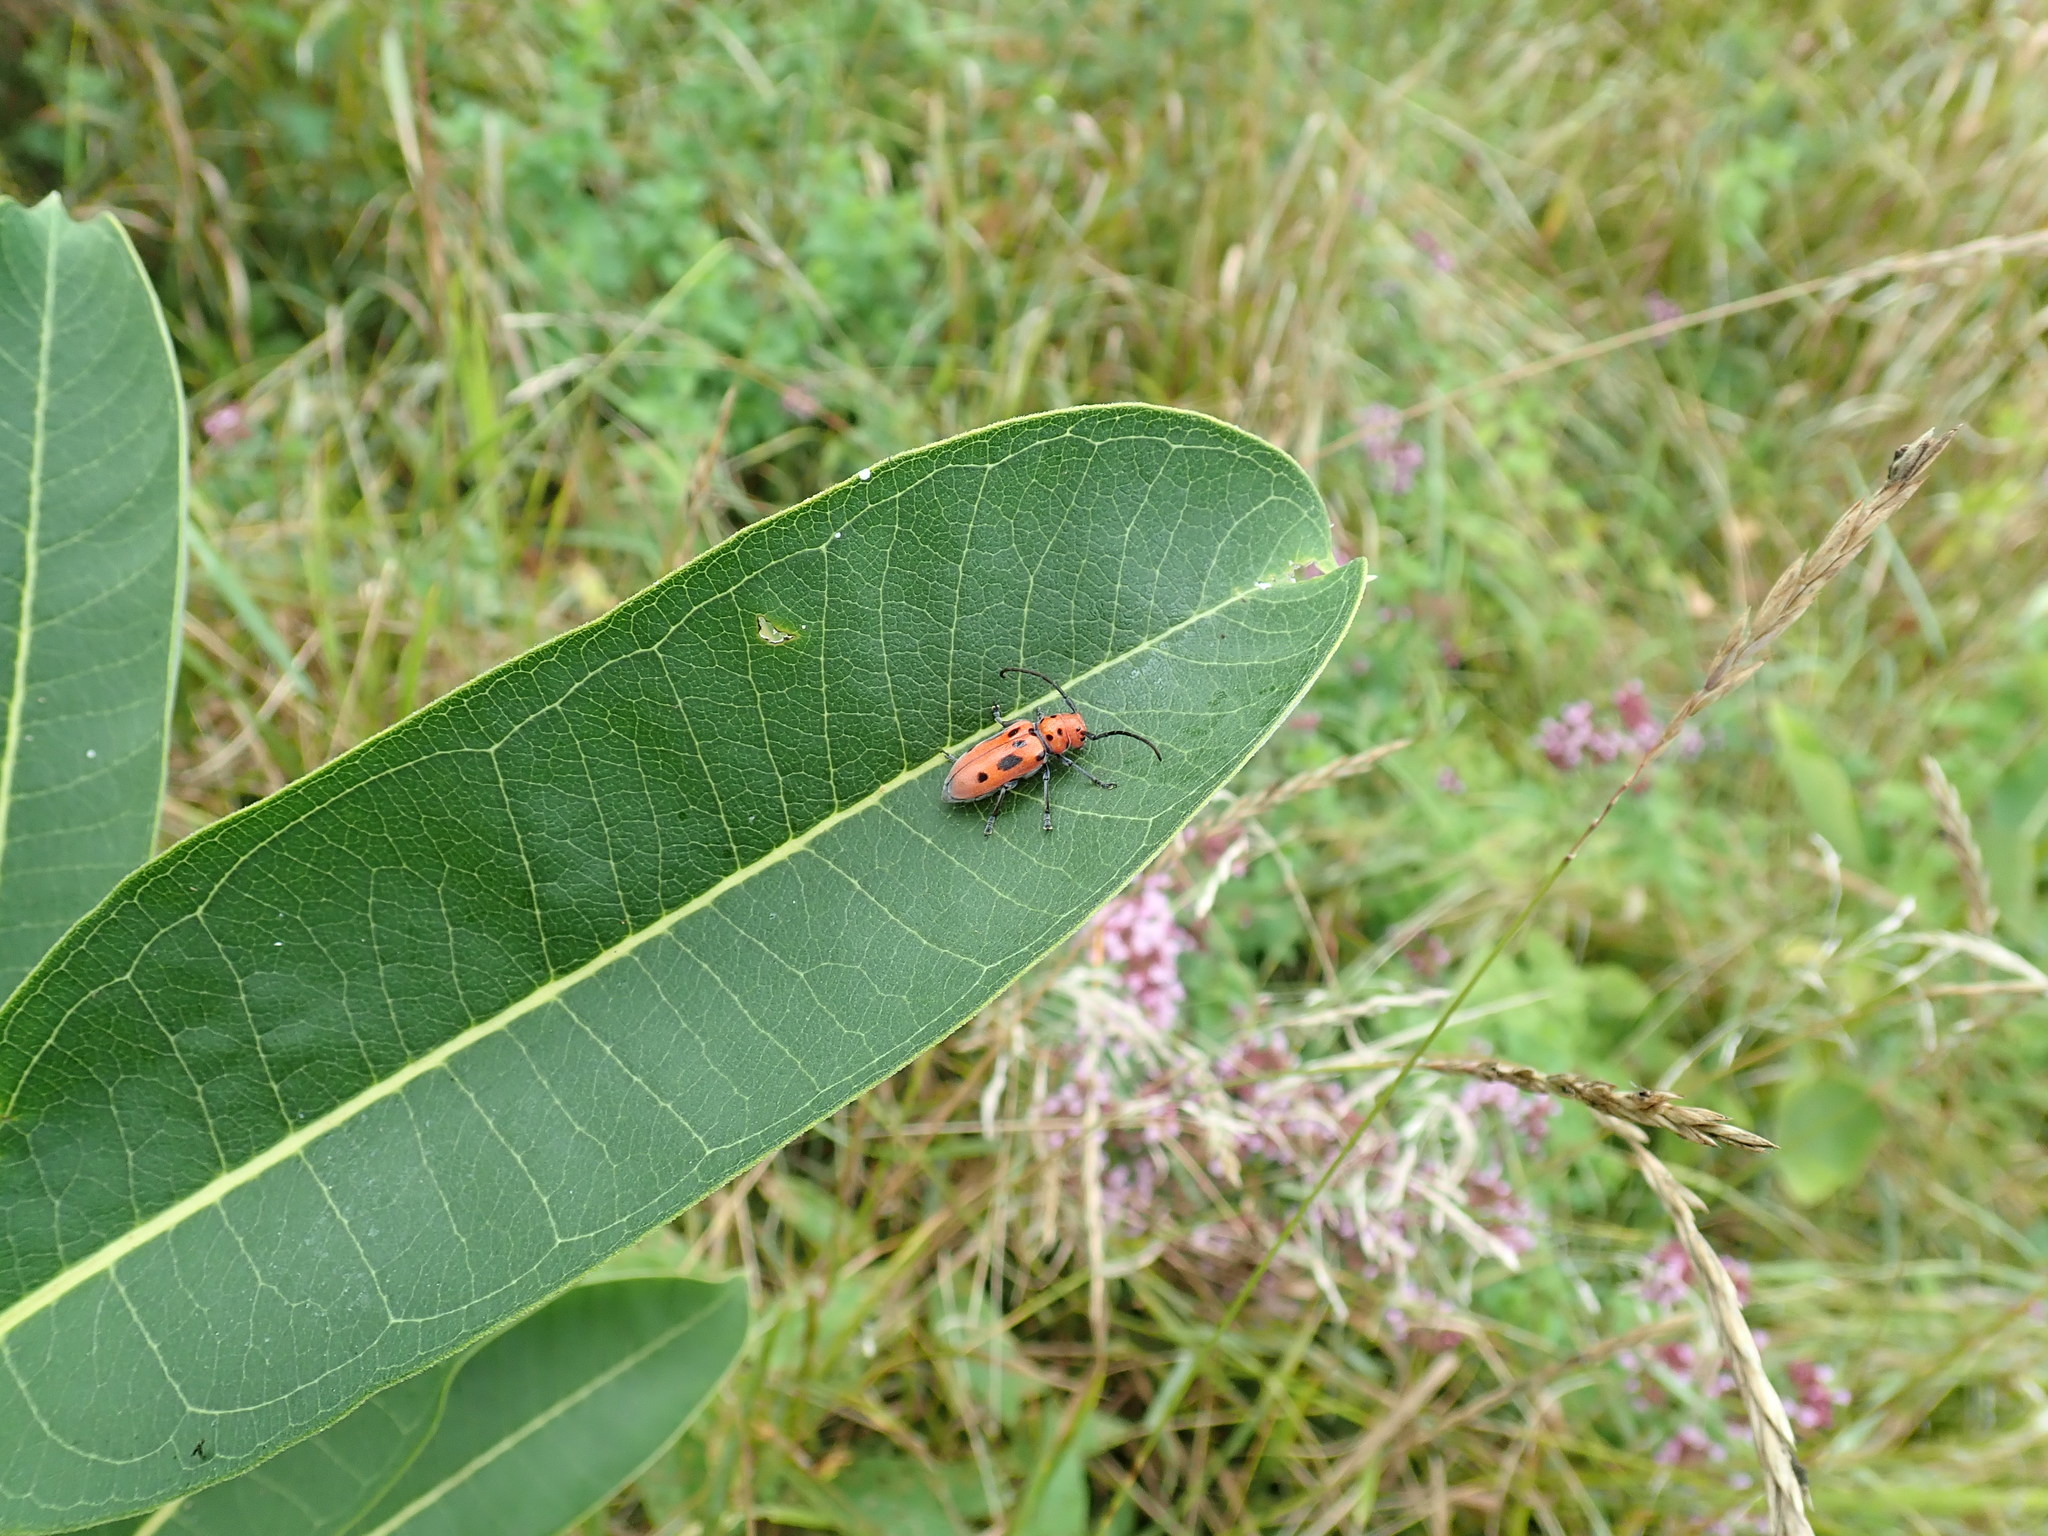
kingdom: Animalia
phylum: Arthropoda
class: Insecta
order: Coleoptera
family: Cerambycidae
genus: Tetraopes
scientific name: Tetraopes tetrophthalmus
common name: Red milkweed beetle
